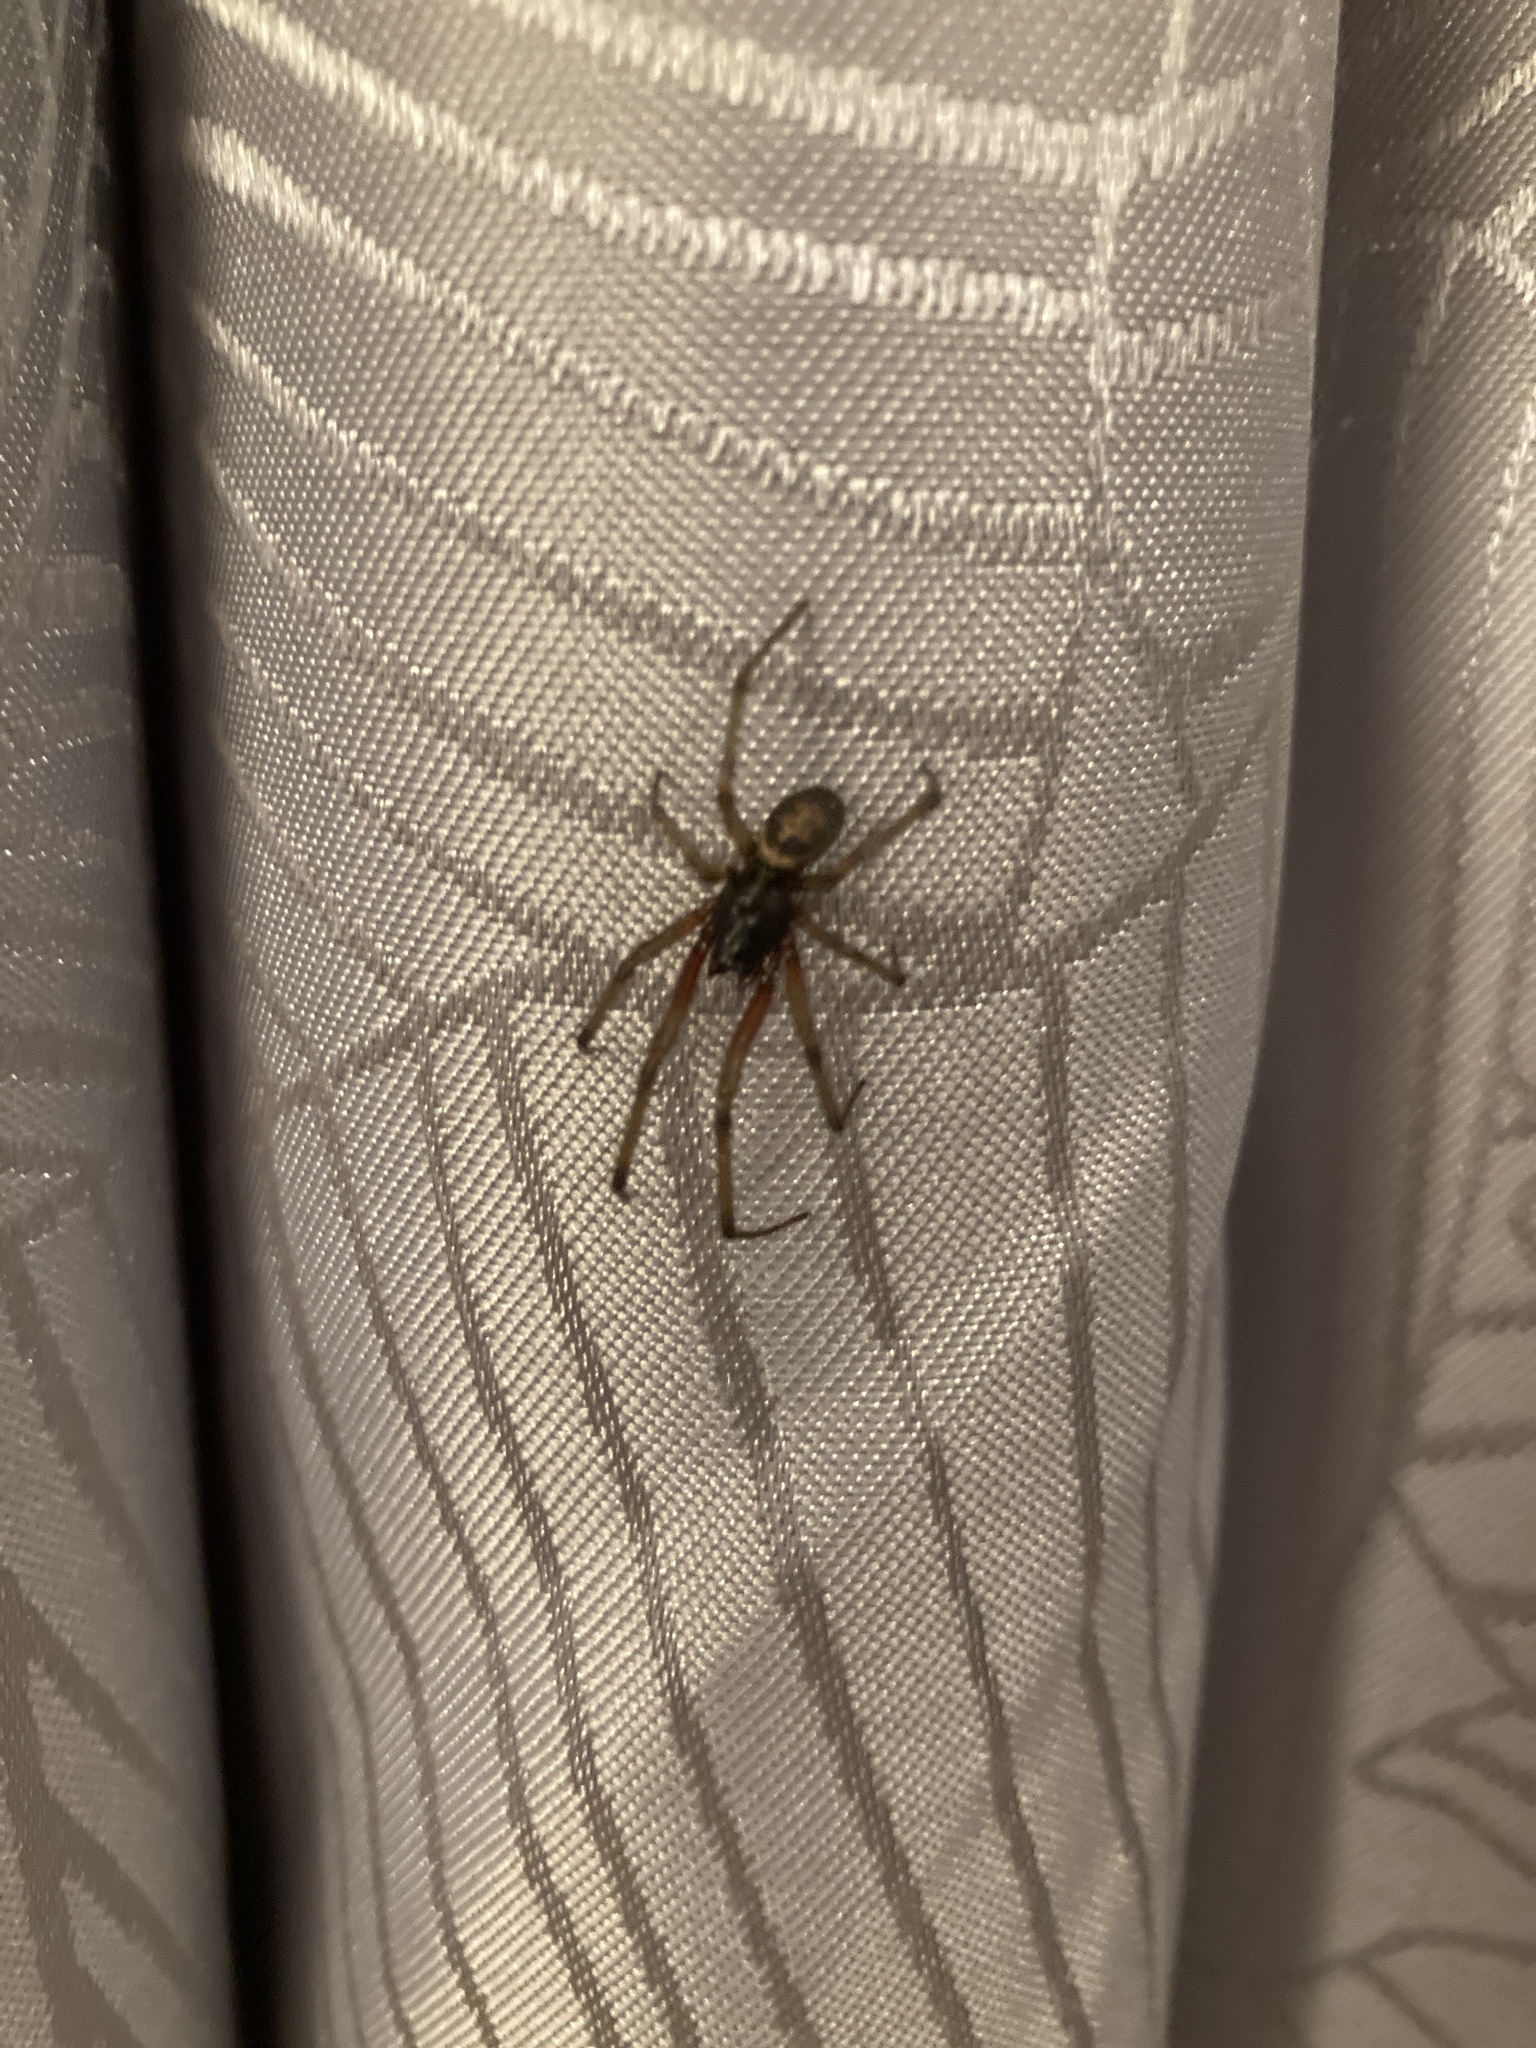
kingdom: Animalia
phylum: Arthropoda
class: Arachnida
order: Araneae
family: Theridiidae
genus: Steatoda
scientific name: Steatoda nobilis
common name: Cobweb weaver
